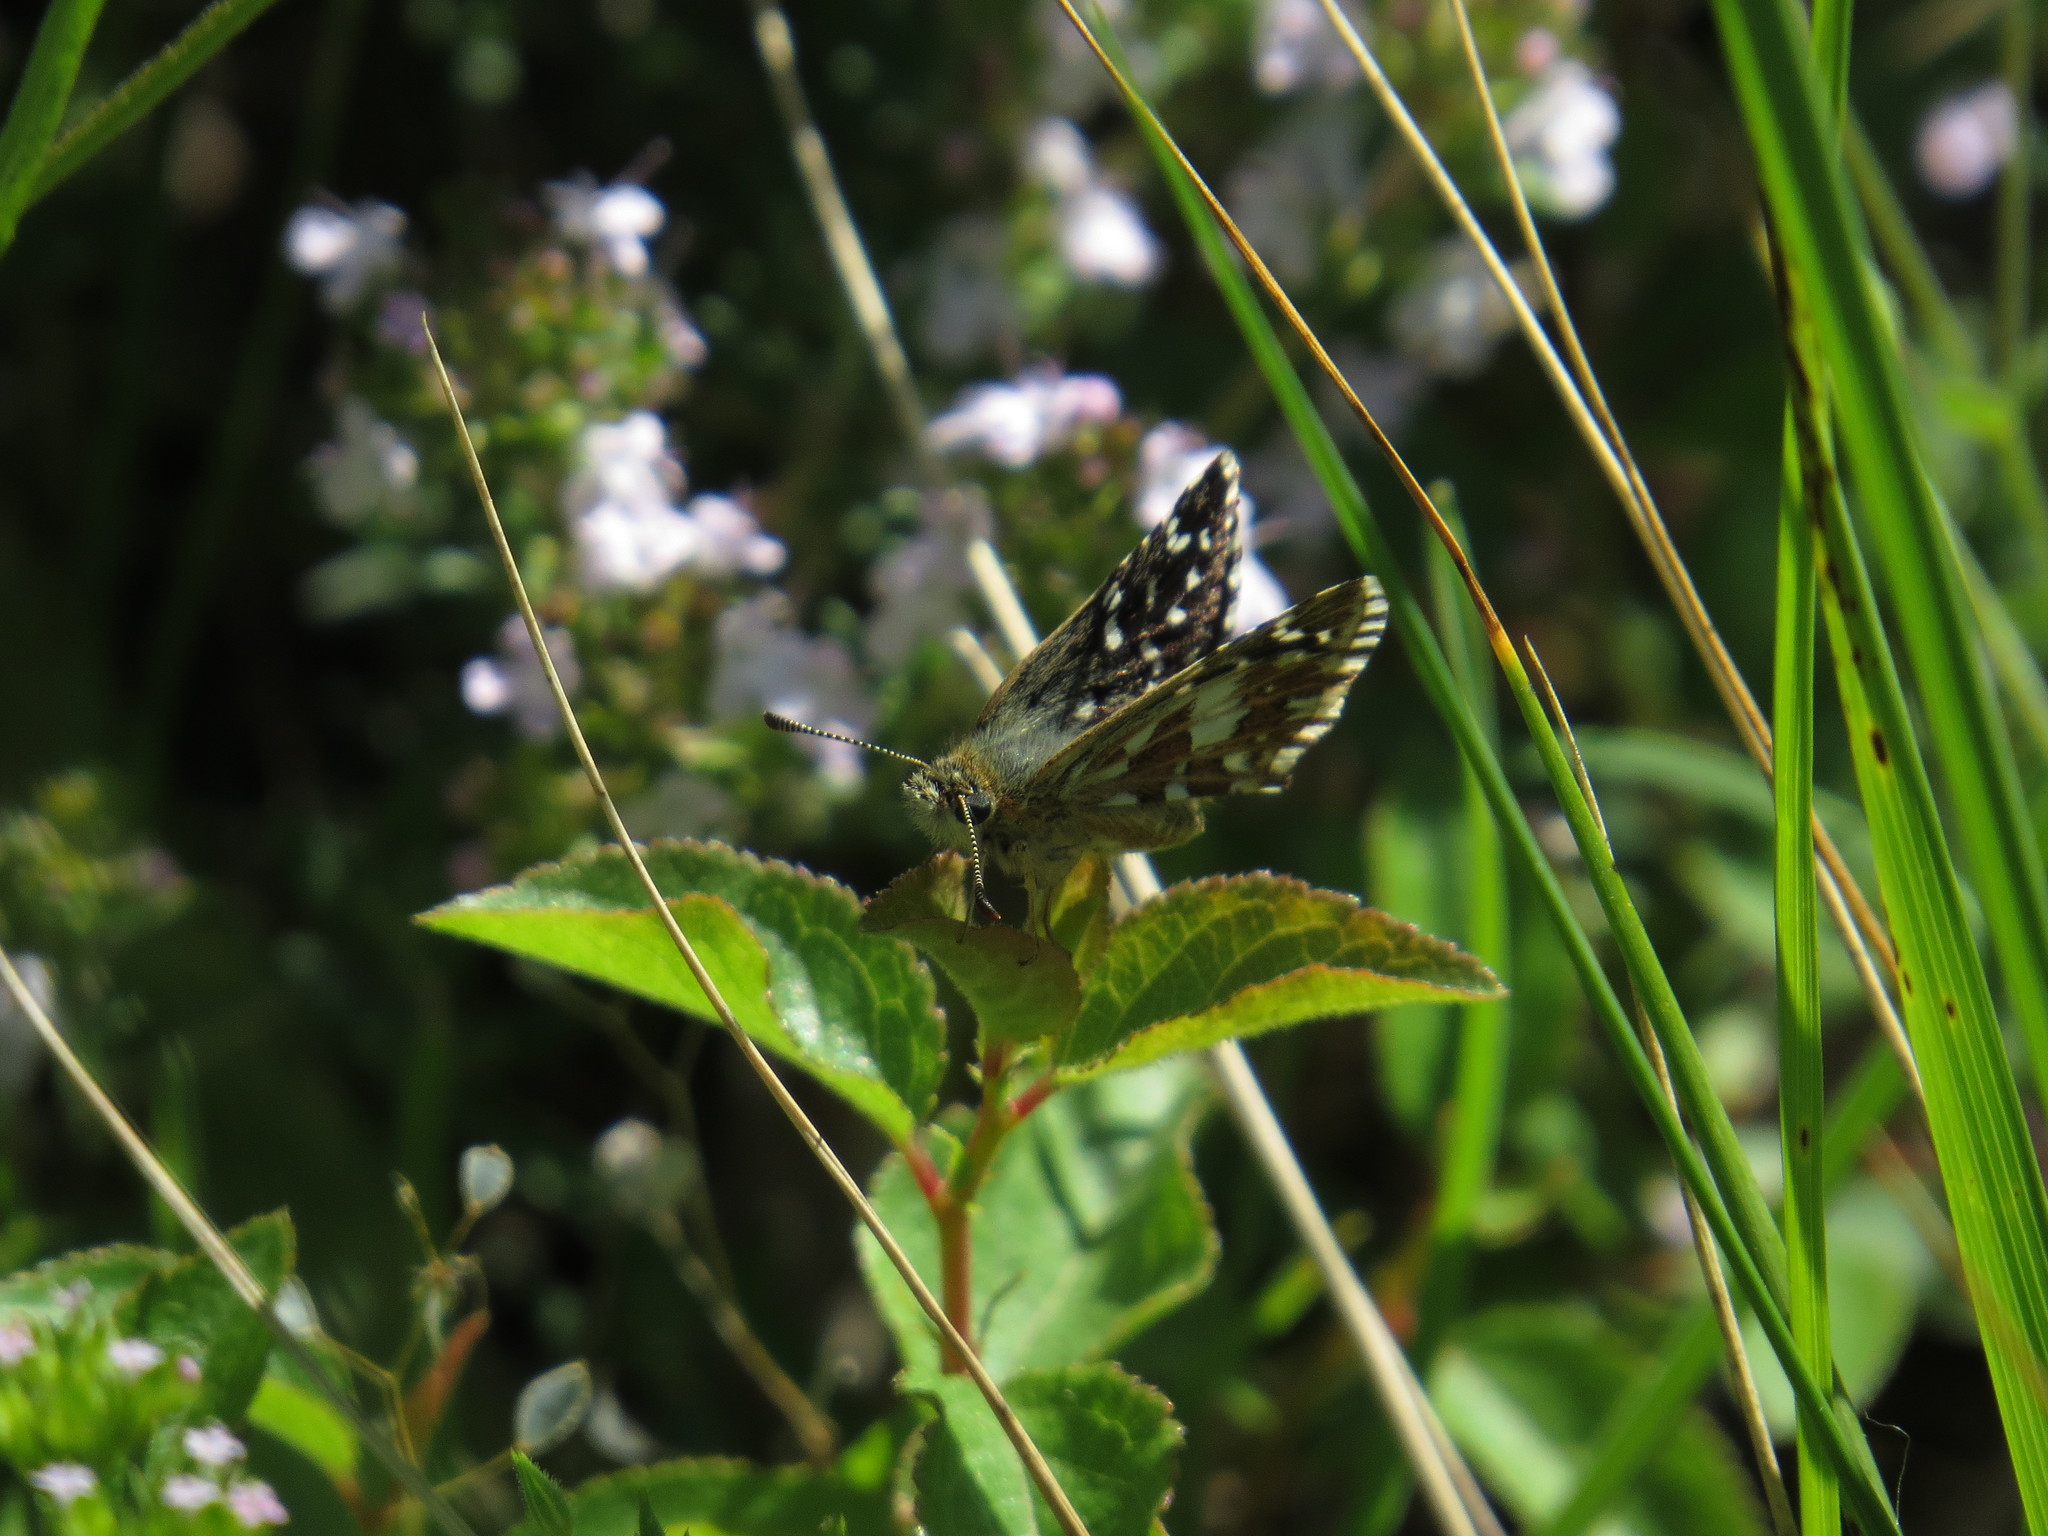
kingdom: Animalia
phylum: Arthropoda
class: Insecta
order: Lepidoptera
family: Hesperiidae
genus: Pyrgus
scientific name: Pyrgus malvoides
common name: Southern grizzled skipper
